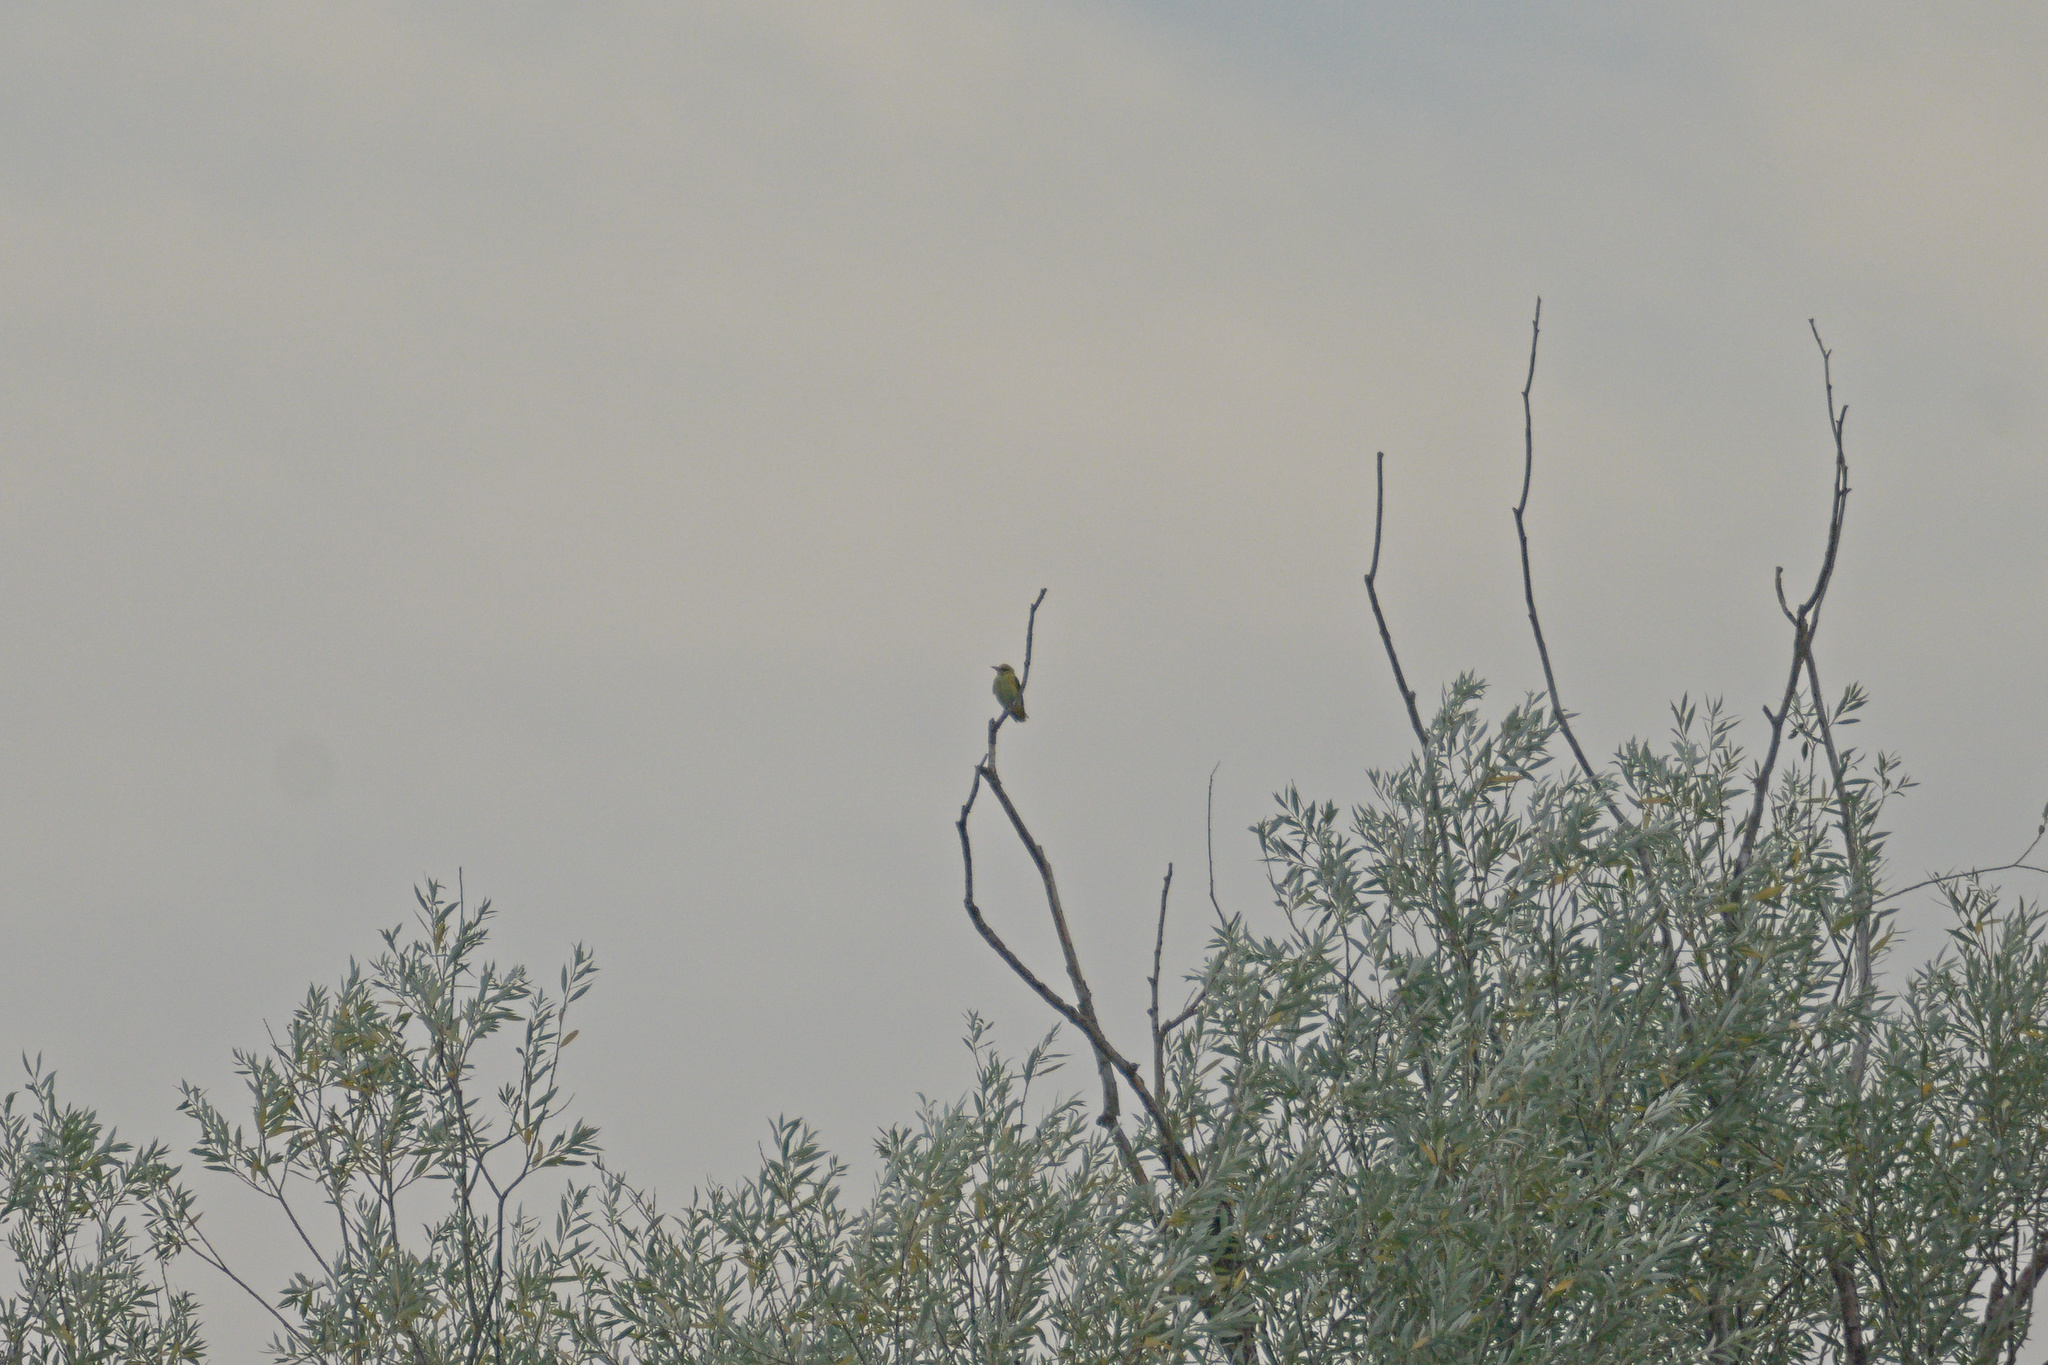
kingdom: Animalia
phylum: Chordata
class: Aves
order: Passeriformes
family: Oriolidae
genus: Oriolus
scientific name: Oriolus oriolus
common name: Eurasian golden oriole
